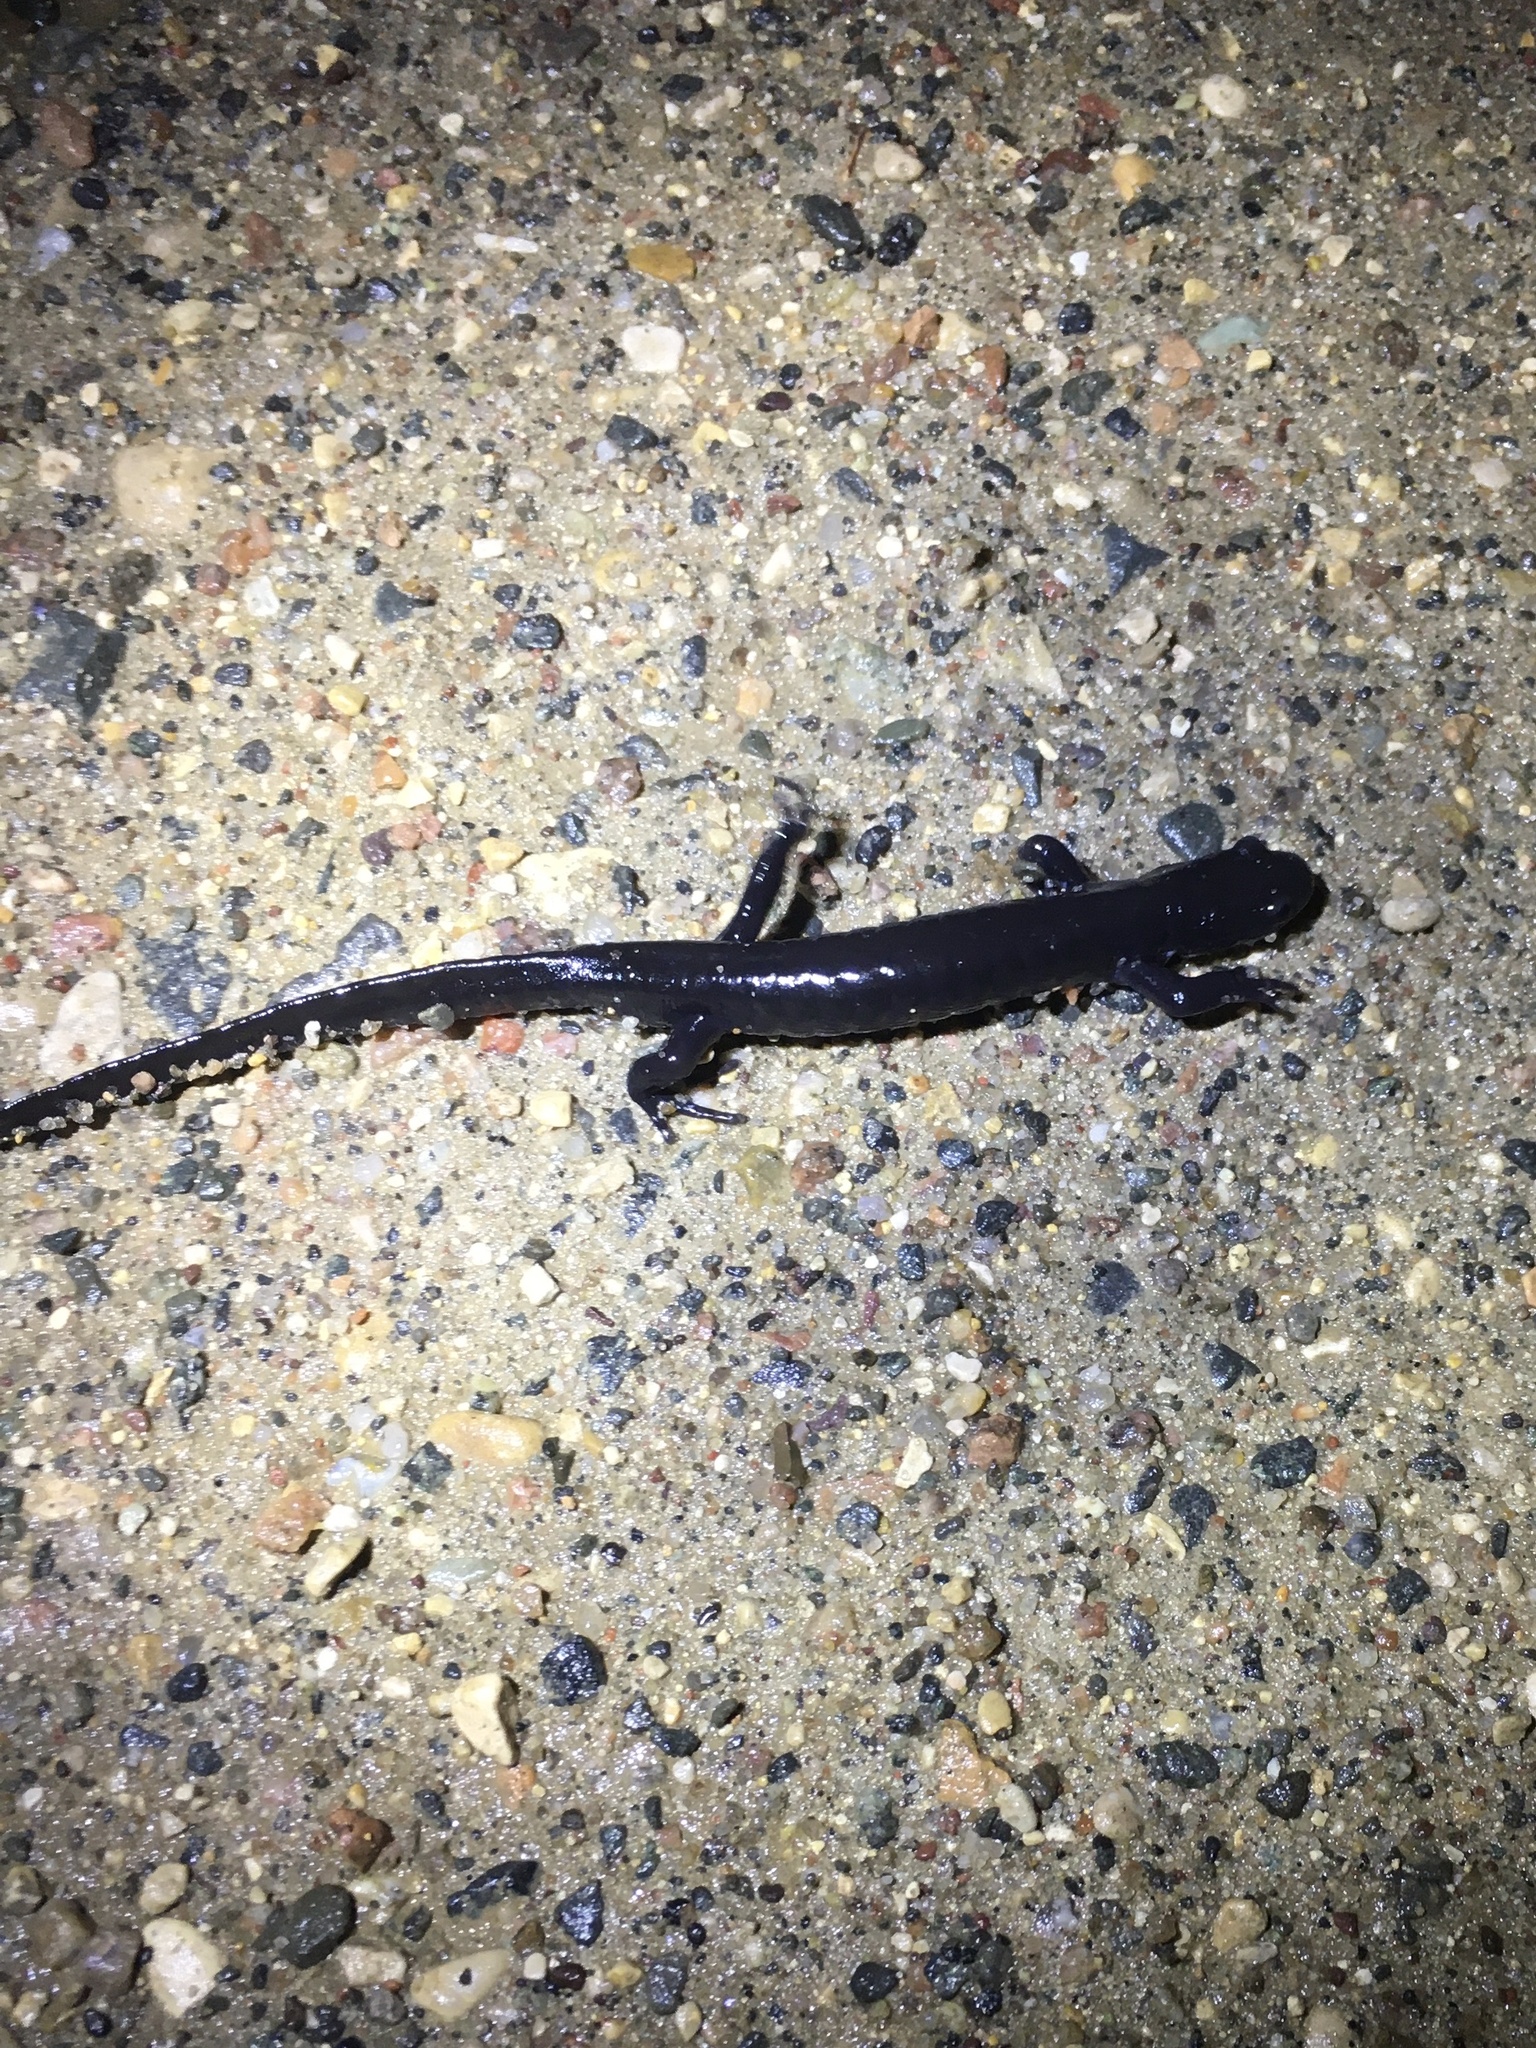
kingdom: Animalia
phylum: Chordata
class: Amphibia
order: Caudata
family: Ambystomatidae
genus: Ambystoma
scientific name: Ambystoma laterale
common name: Blue-spotted salamander
